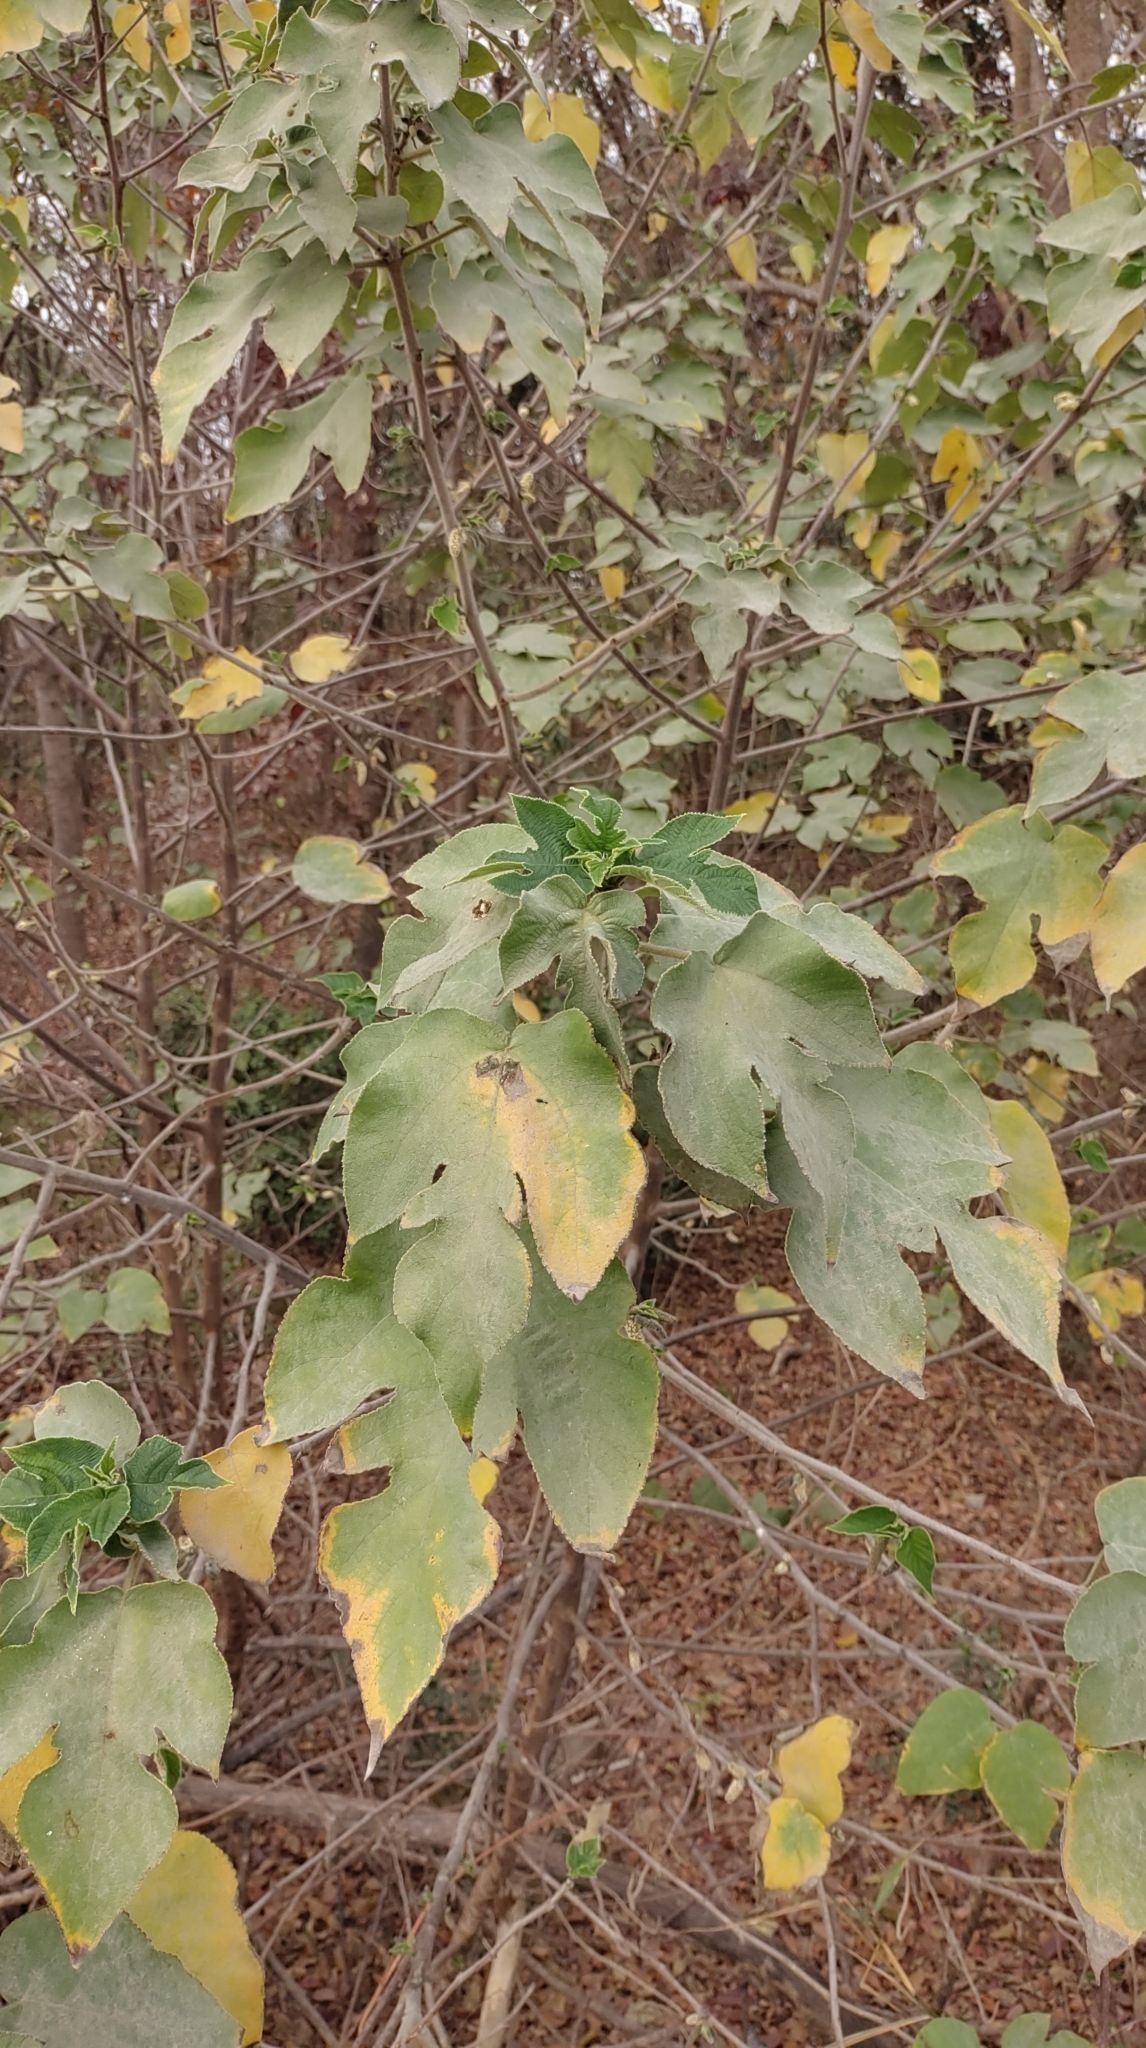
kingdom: Plantae
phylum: Tracheophyta
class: Magnoliopsida
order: Rosales
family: Moraceae
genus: Broussonetia
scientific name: Broussonetia papyrifera
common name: Paper mulberry
